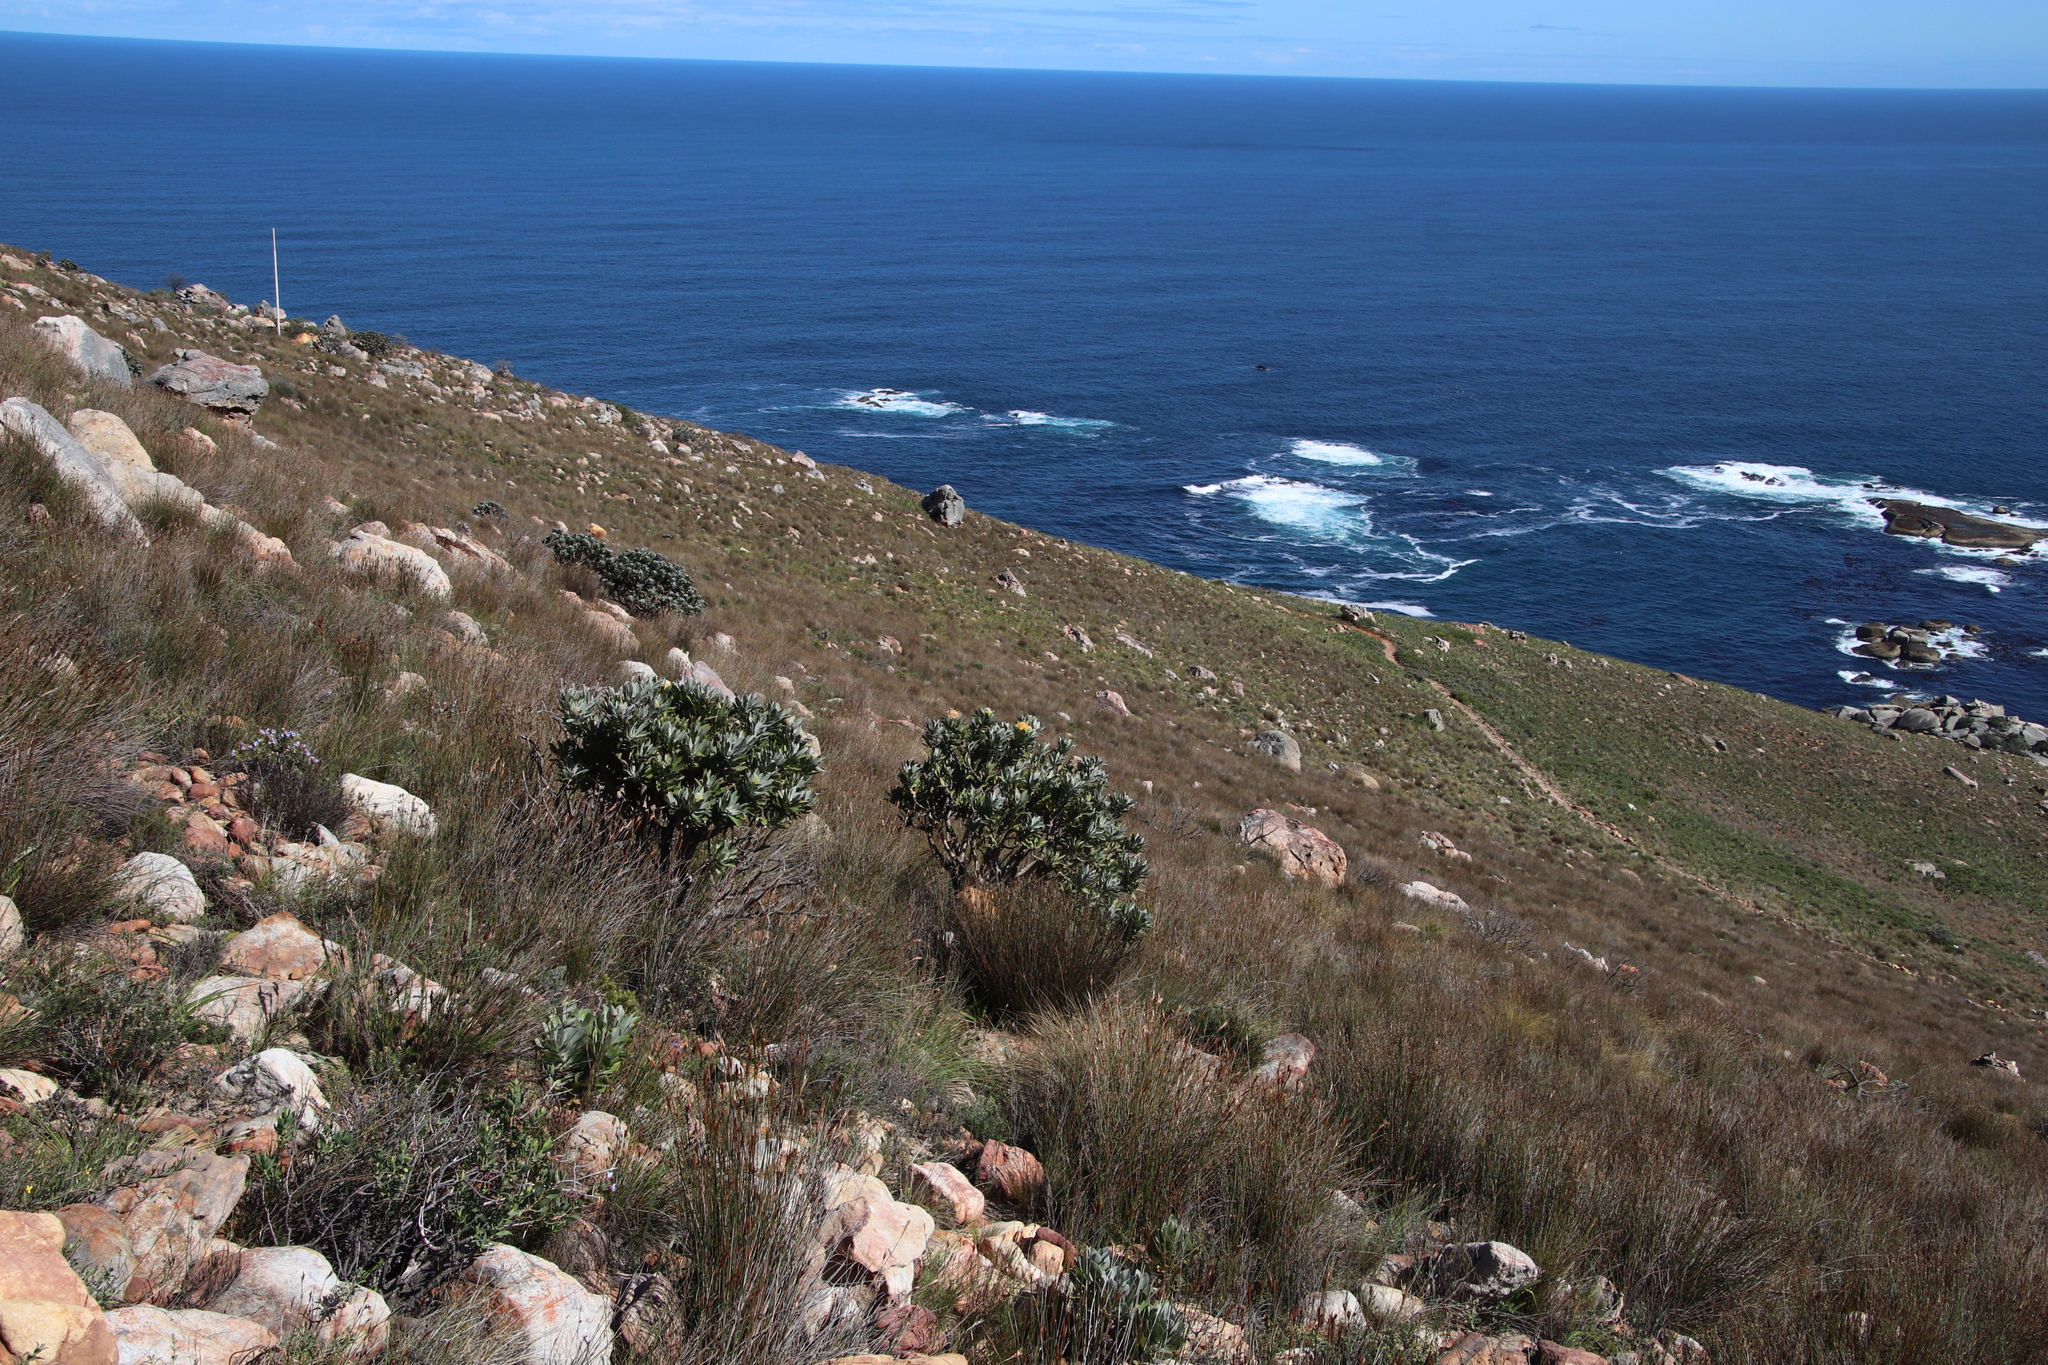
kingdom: Plantae
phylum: Tracheophyta
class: Magnoliopsida
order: Proteales
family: Proteaceae
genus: Leucospermum
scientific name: Leucospermum conocarpodendron
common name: Tree pincushion
